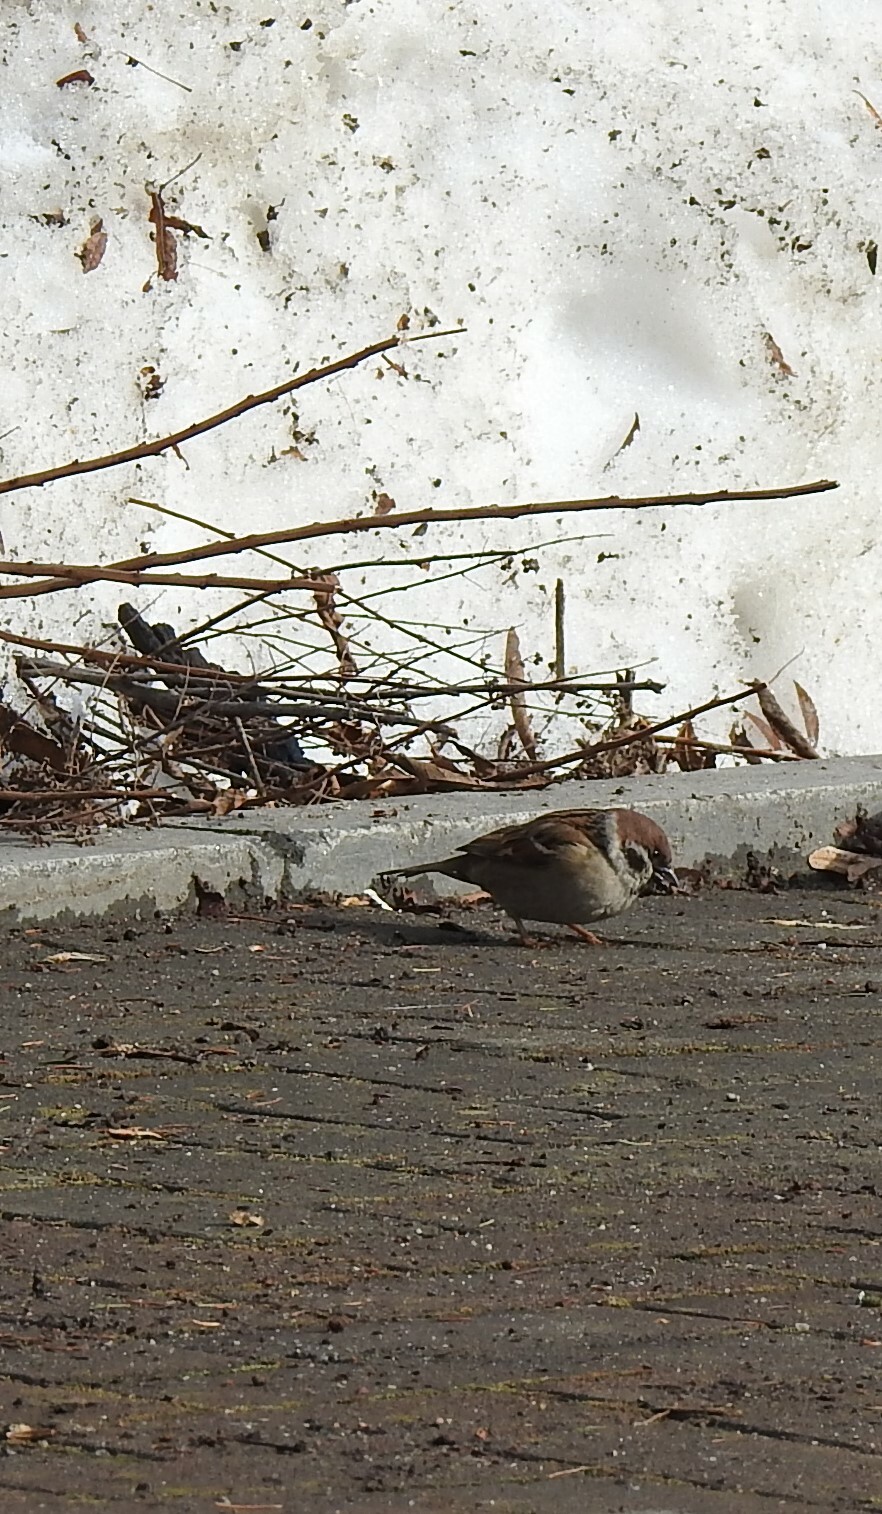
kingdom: Animalia
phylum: Chordata
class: Aves
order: Passeriformes
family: Passeridae
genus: Passer
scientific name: Passer montanus
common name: Eurasian tree sparrow
